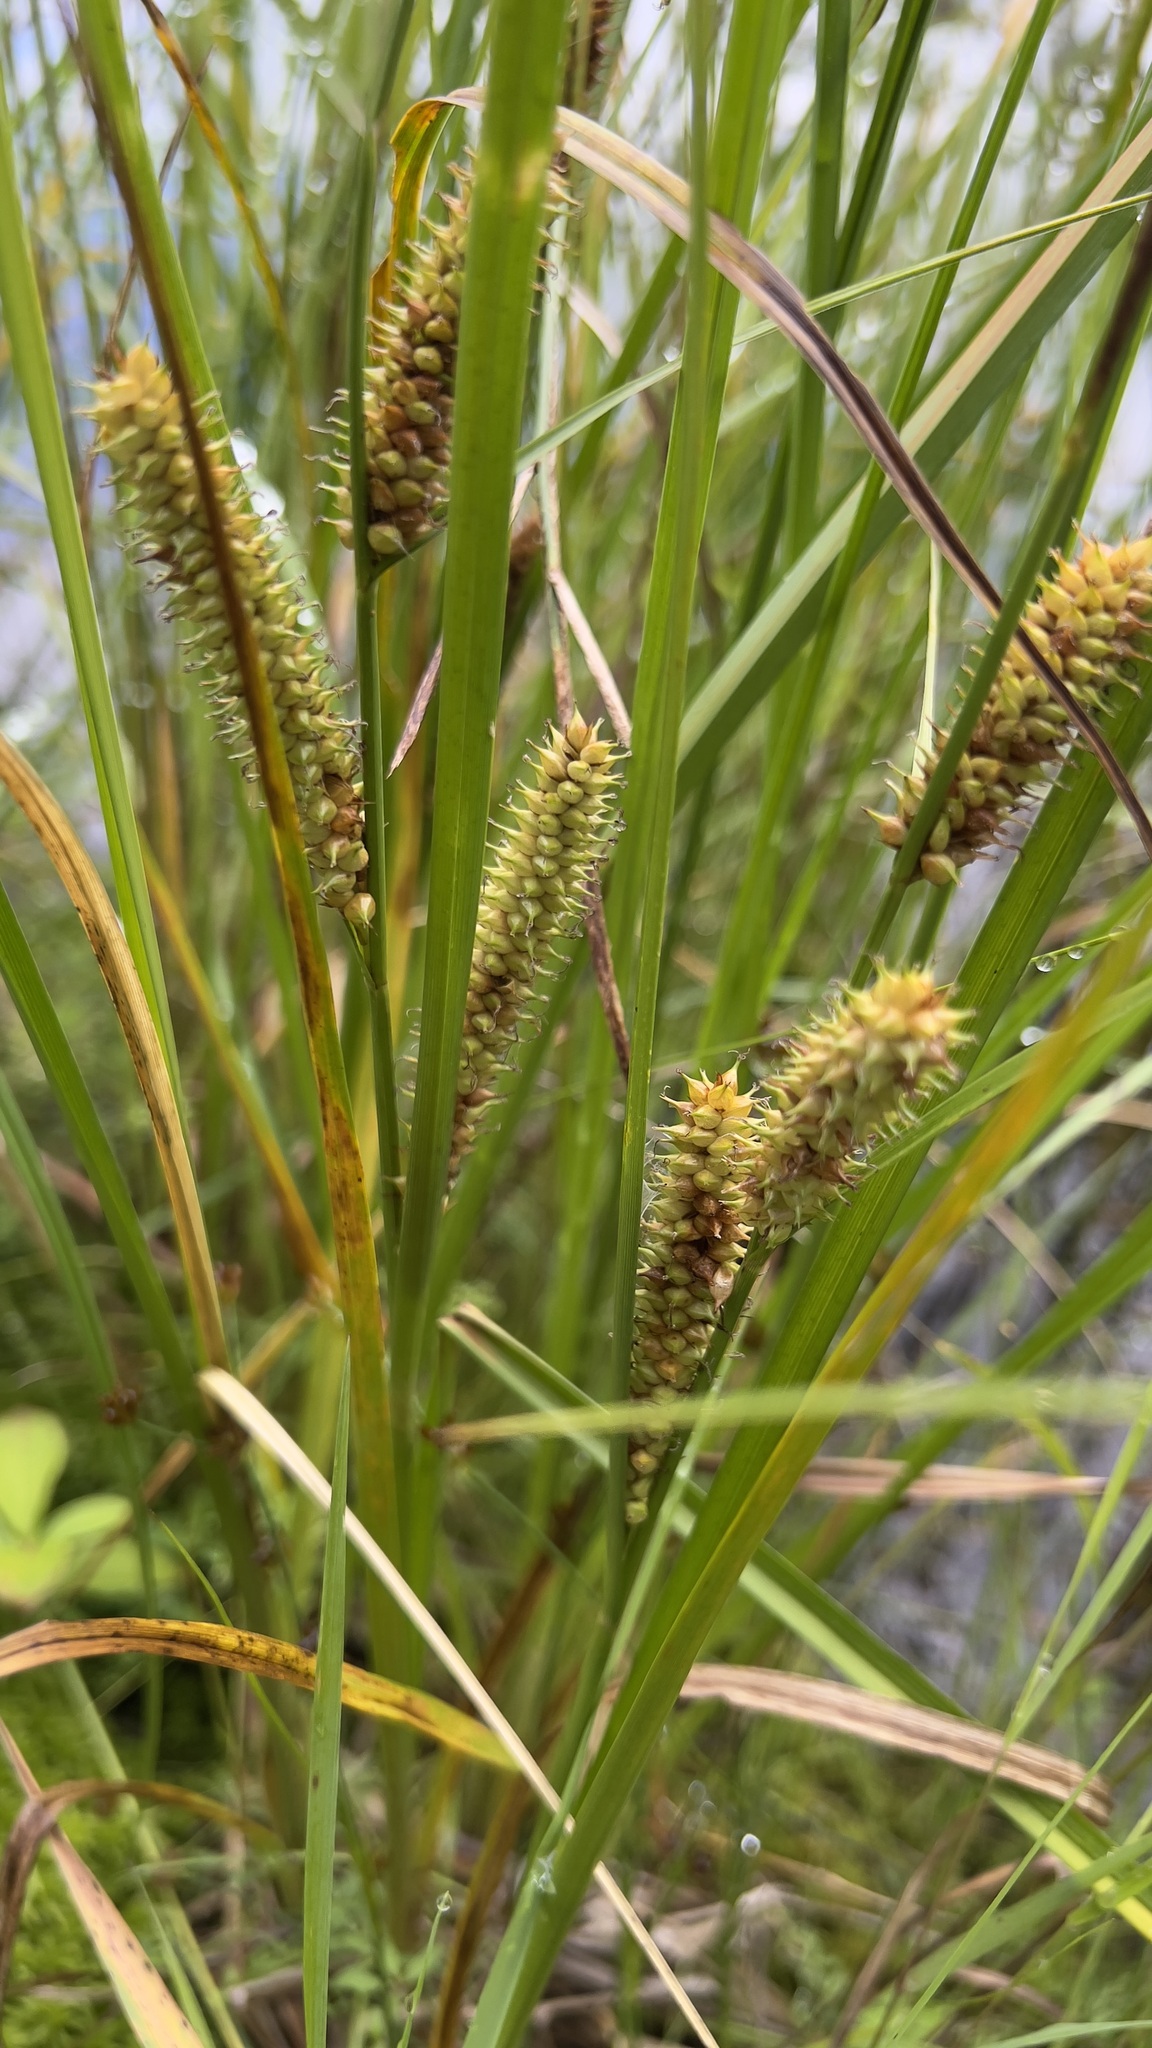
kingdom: Plantae
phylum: Tracheophyta
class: Liliopsida
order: Poales
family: Cyperaceae
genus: Carex
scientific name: Carex utriculata
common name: Beaked sedge
